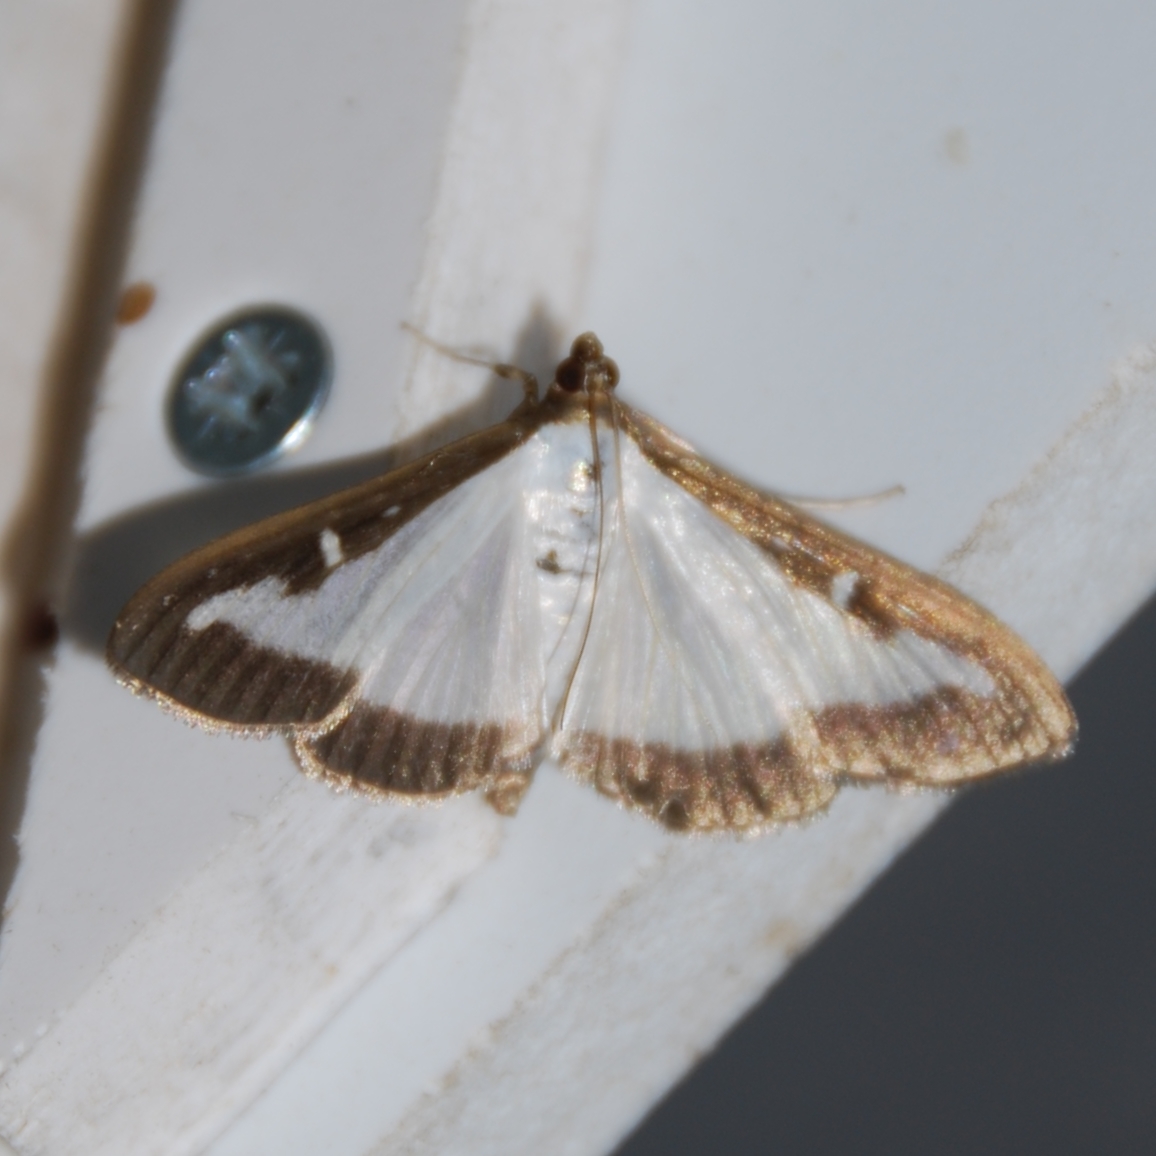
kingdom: Animalia
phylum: Arthropoda
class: Insecta
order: Lepidoptera
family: Crambidae
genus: Cydalima
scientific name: Cydalima perspectalis
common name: Box tree moth
